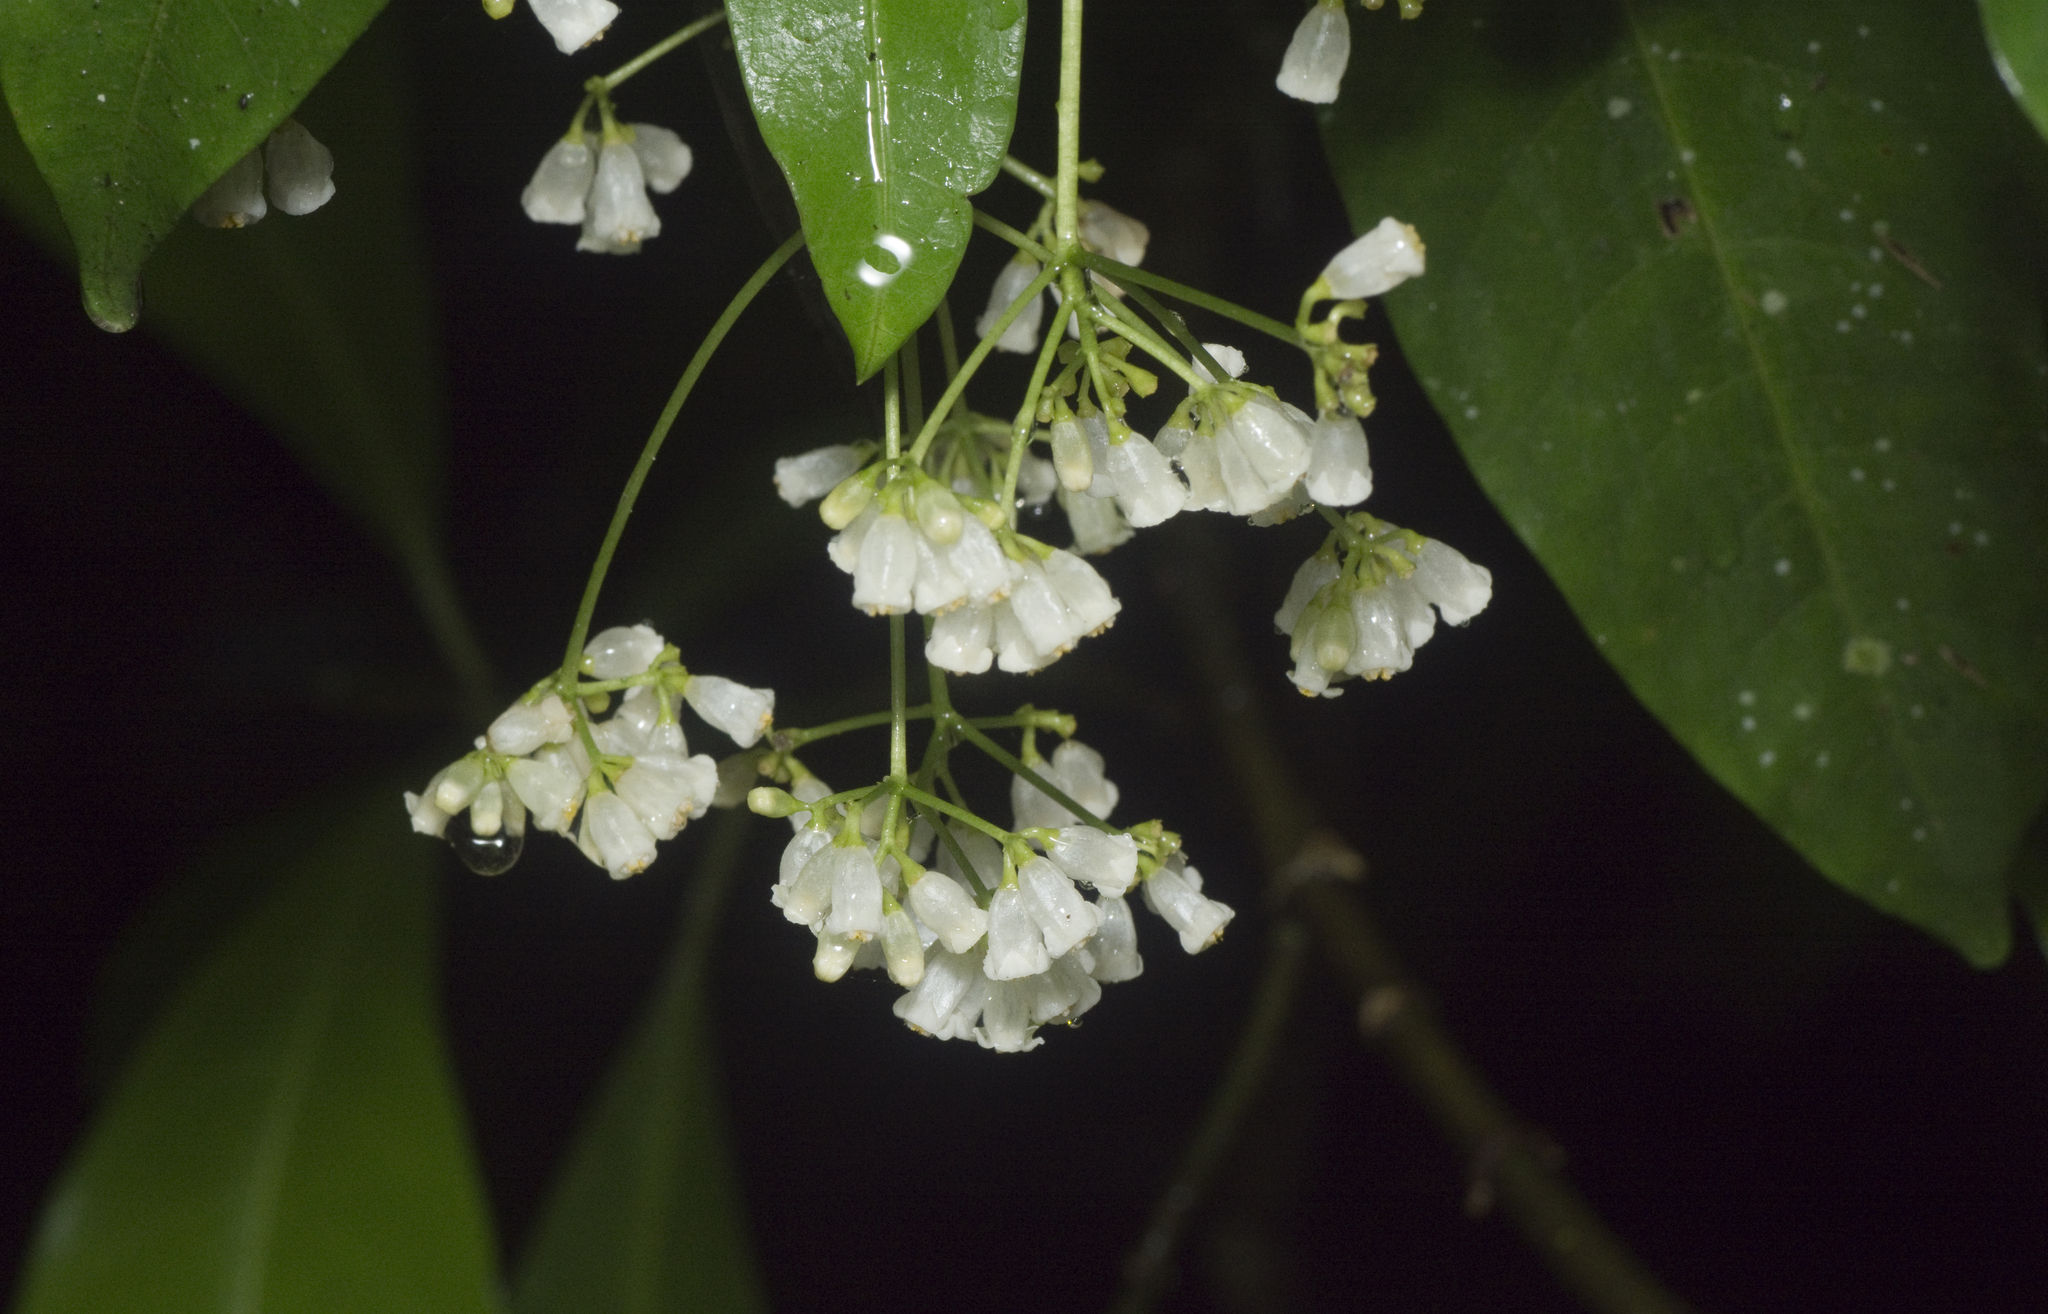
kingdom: Plantae
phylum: Tracheophyta
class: Magnoliopsida
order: Gentianales
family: Rubiaceae
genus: Eumachia
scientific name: Eumachia frutescens
